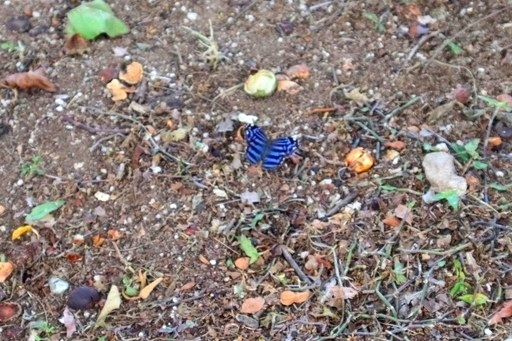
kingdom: Animalia
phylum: Arthropoda
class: Insecta
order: Lepidoptera
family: Nymphalidae
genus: Myscelia
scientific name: Myscelia ethusa
